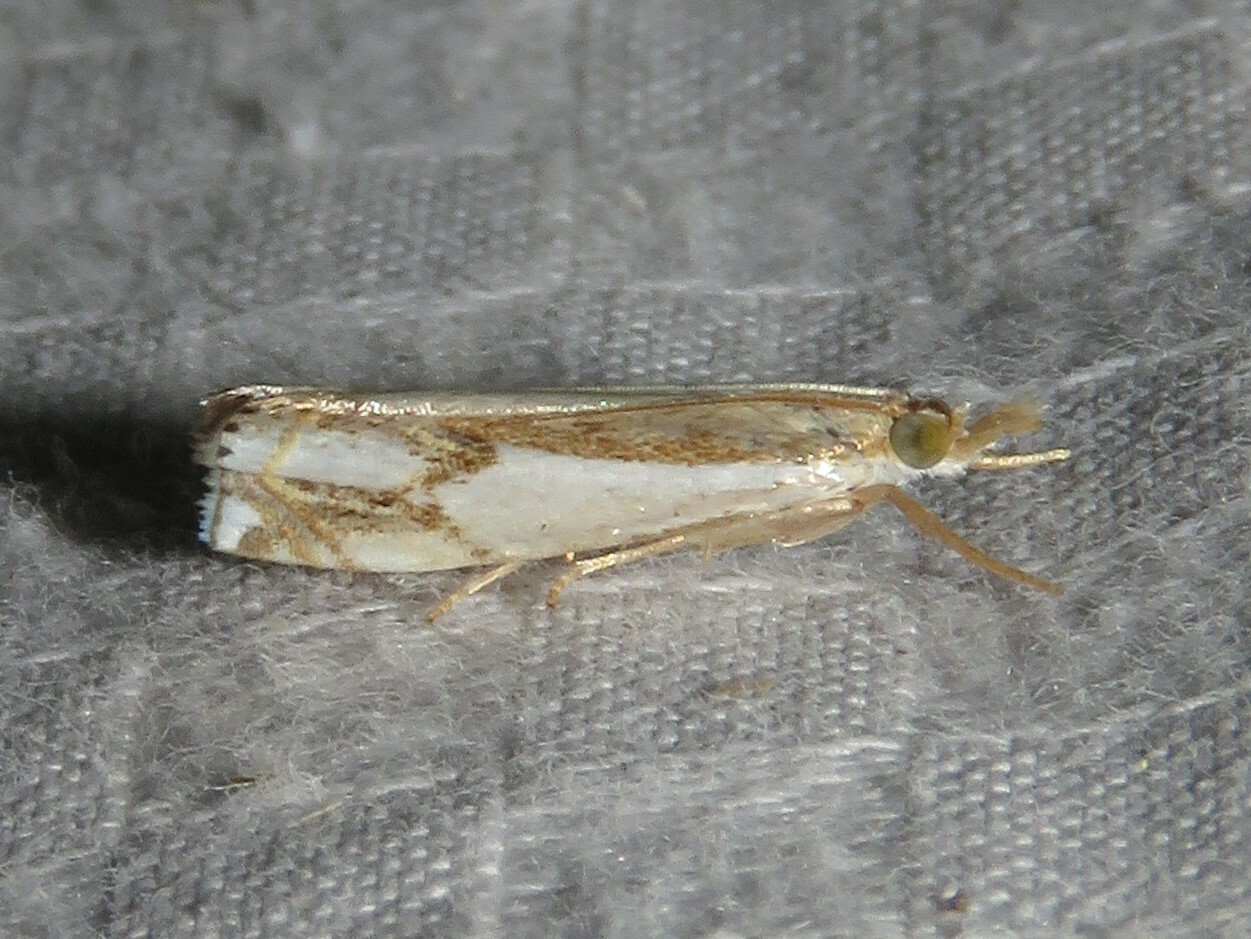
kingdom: Animalia
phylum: Arthropoda
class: Insecta
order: Lepidoptera
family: Crambidae
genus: Crambus
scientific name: Crambus agitatellus
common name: Double-banded grass-veneer
